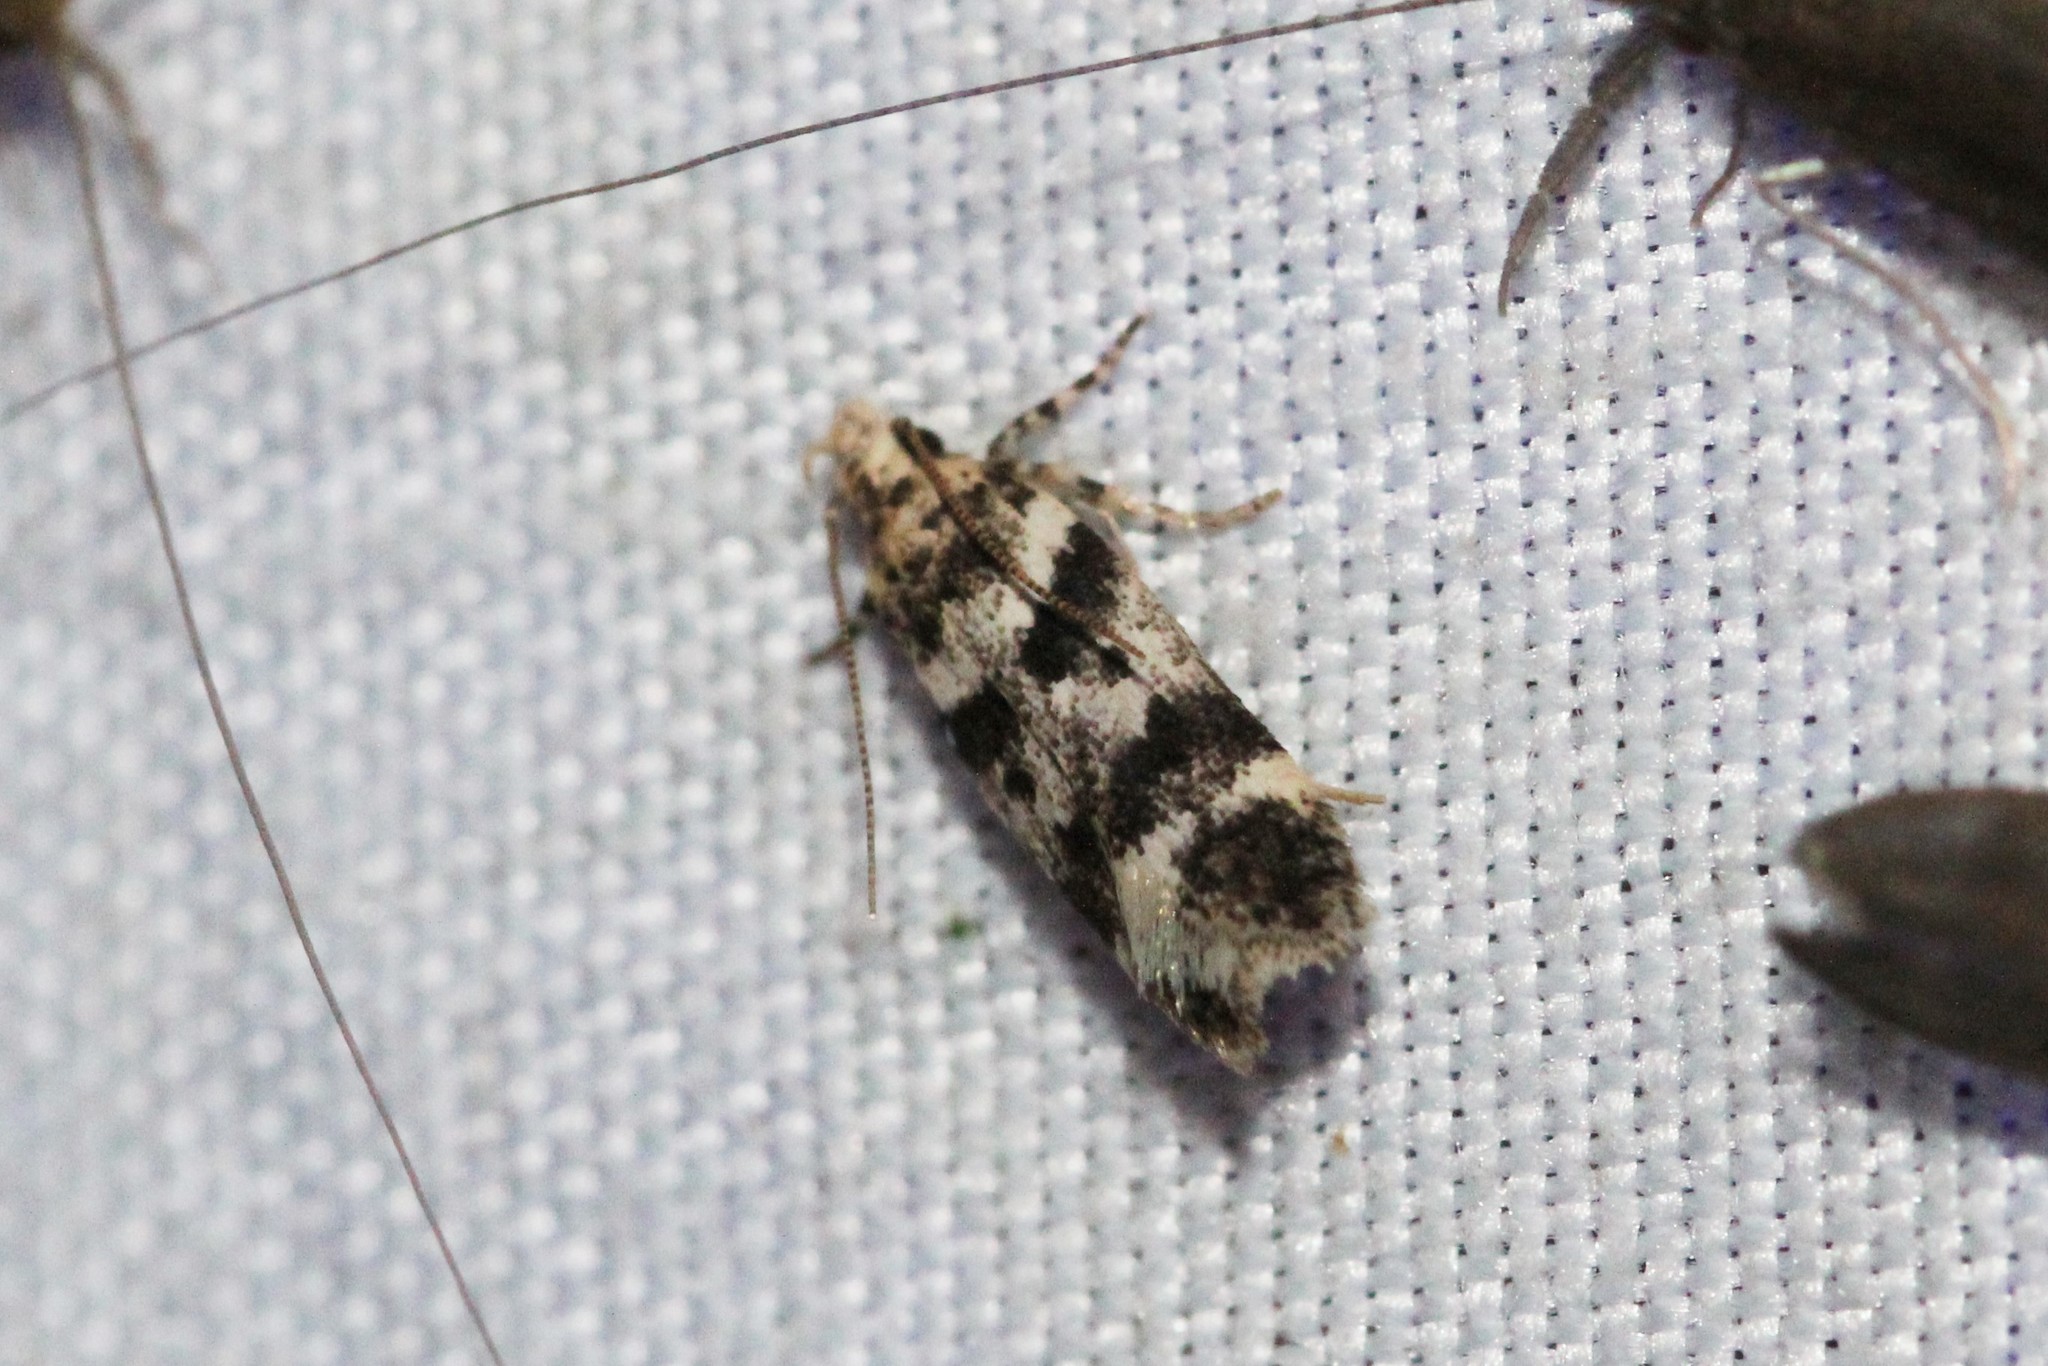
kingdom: Animalia
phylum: Arthropoda
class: Insecta
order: Lepidoptera
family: Gelechiidae
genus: Chionodes
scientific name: Chionodes pseudofondella
